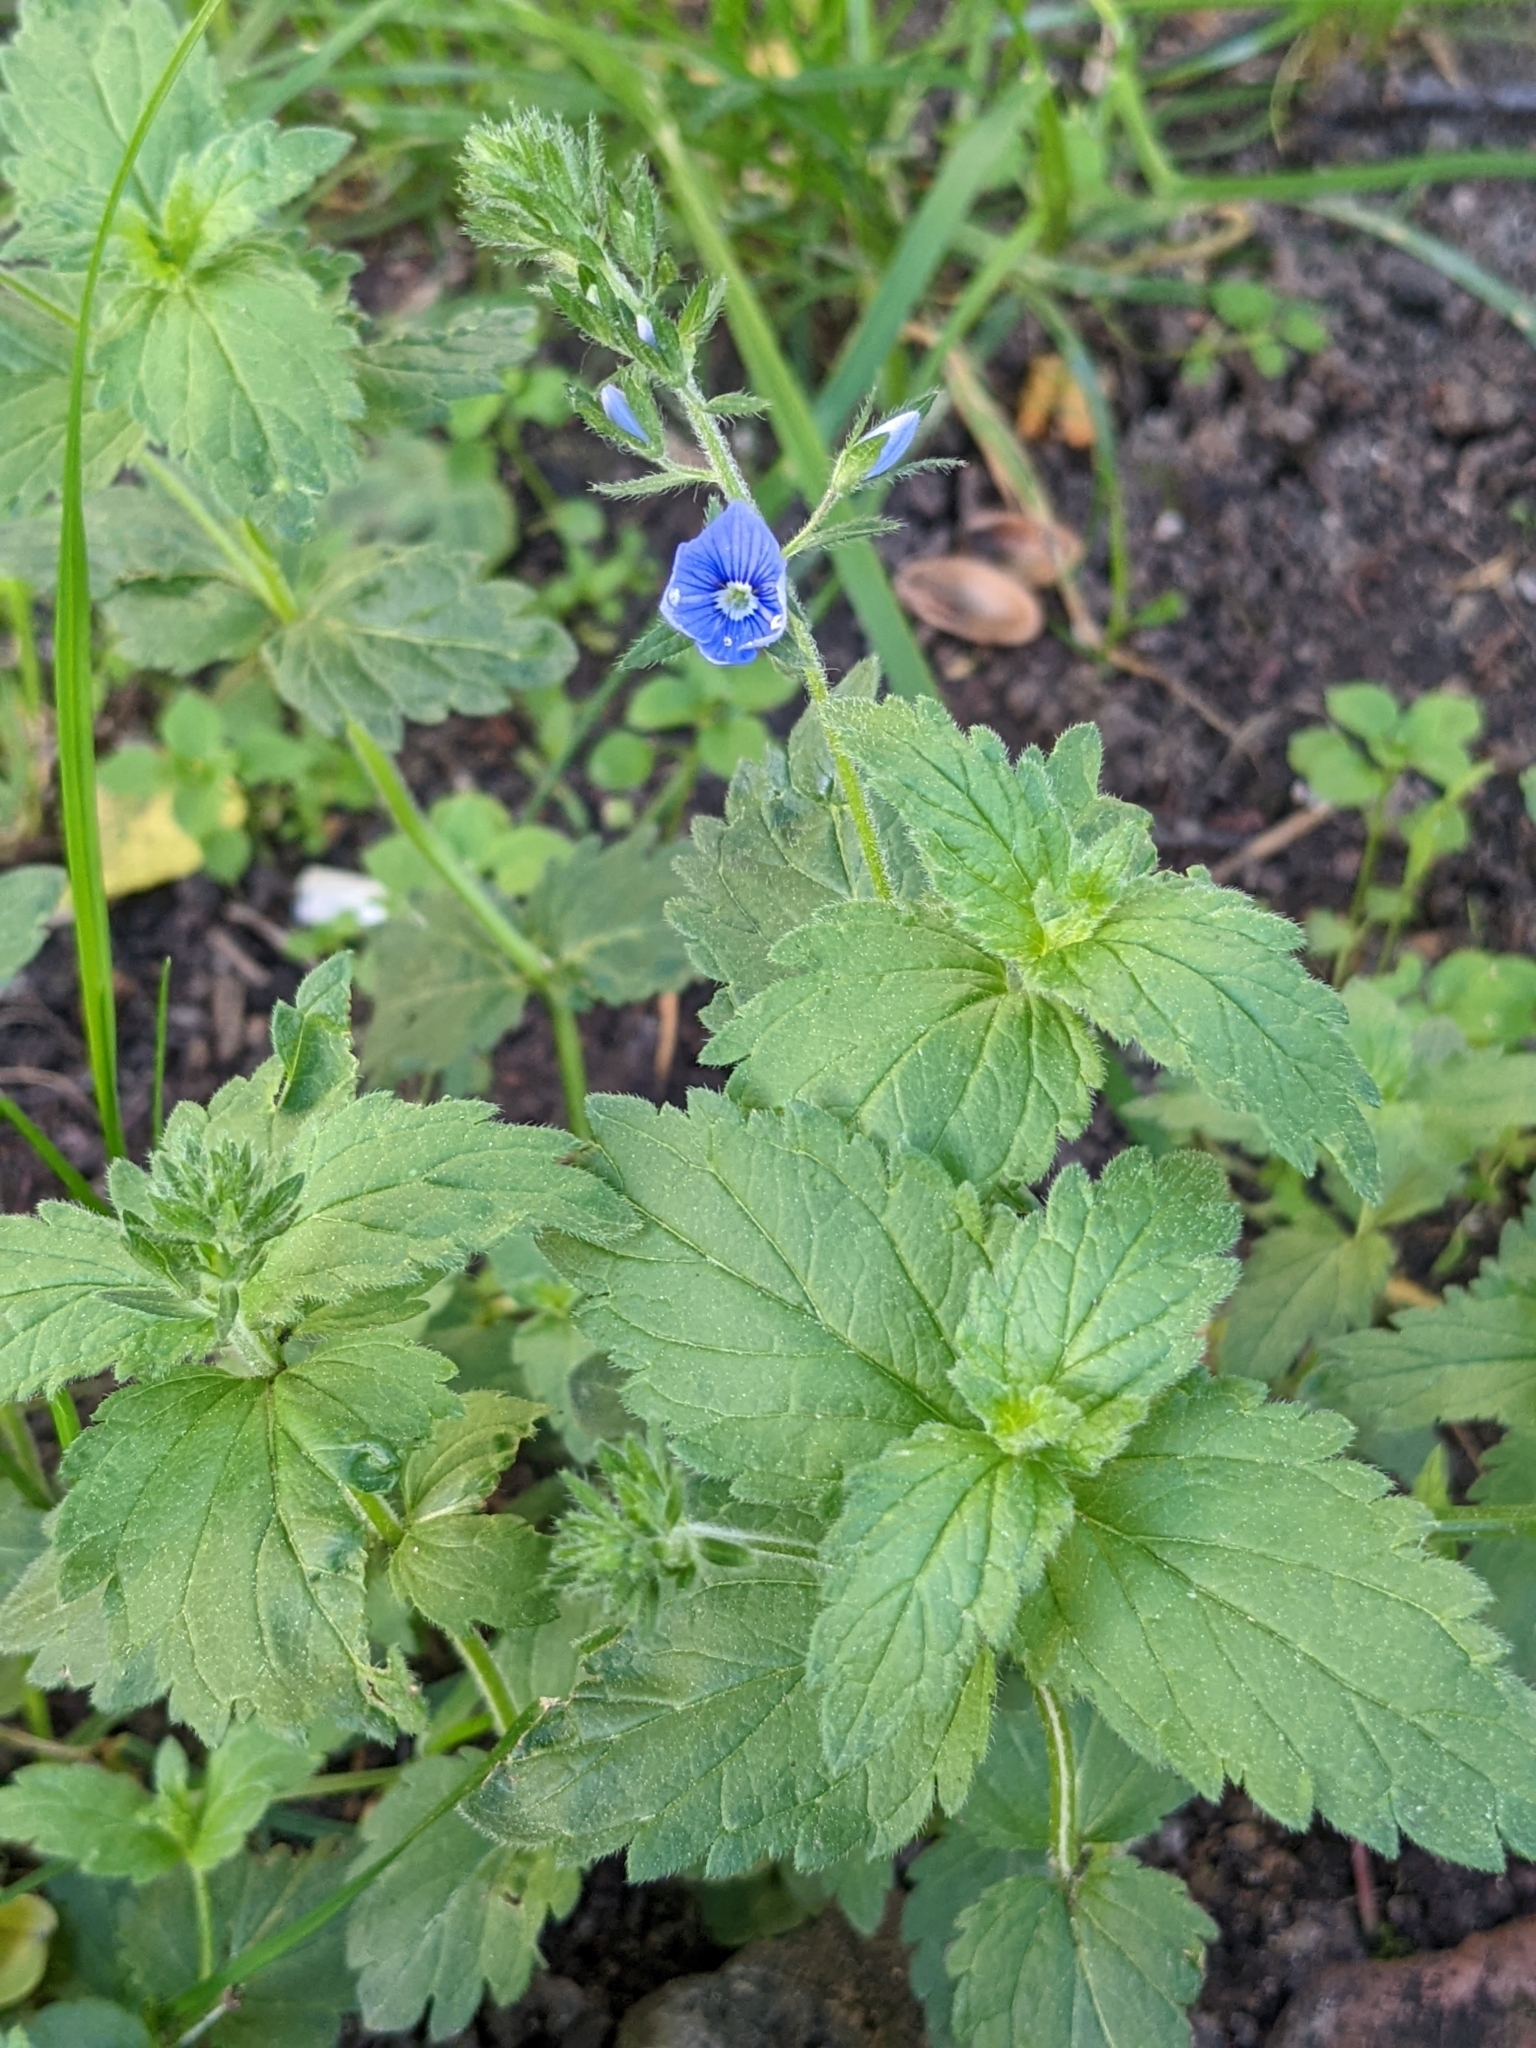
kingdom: Plantae
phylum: Tracheophyta
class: Magnoliopsida
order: Lamiales
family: Plantaginaceae
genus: Veronica
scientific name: Veronica chamaedrys
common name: Germander speedwell
